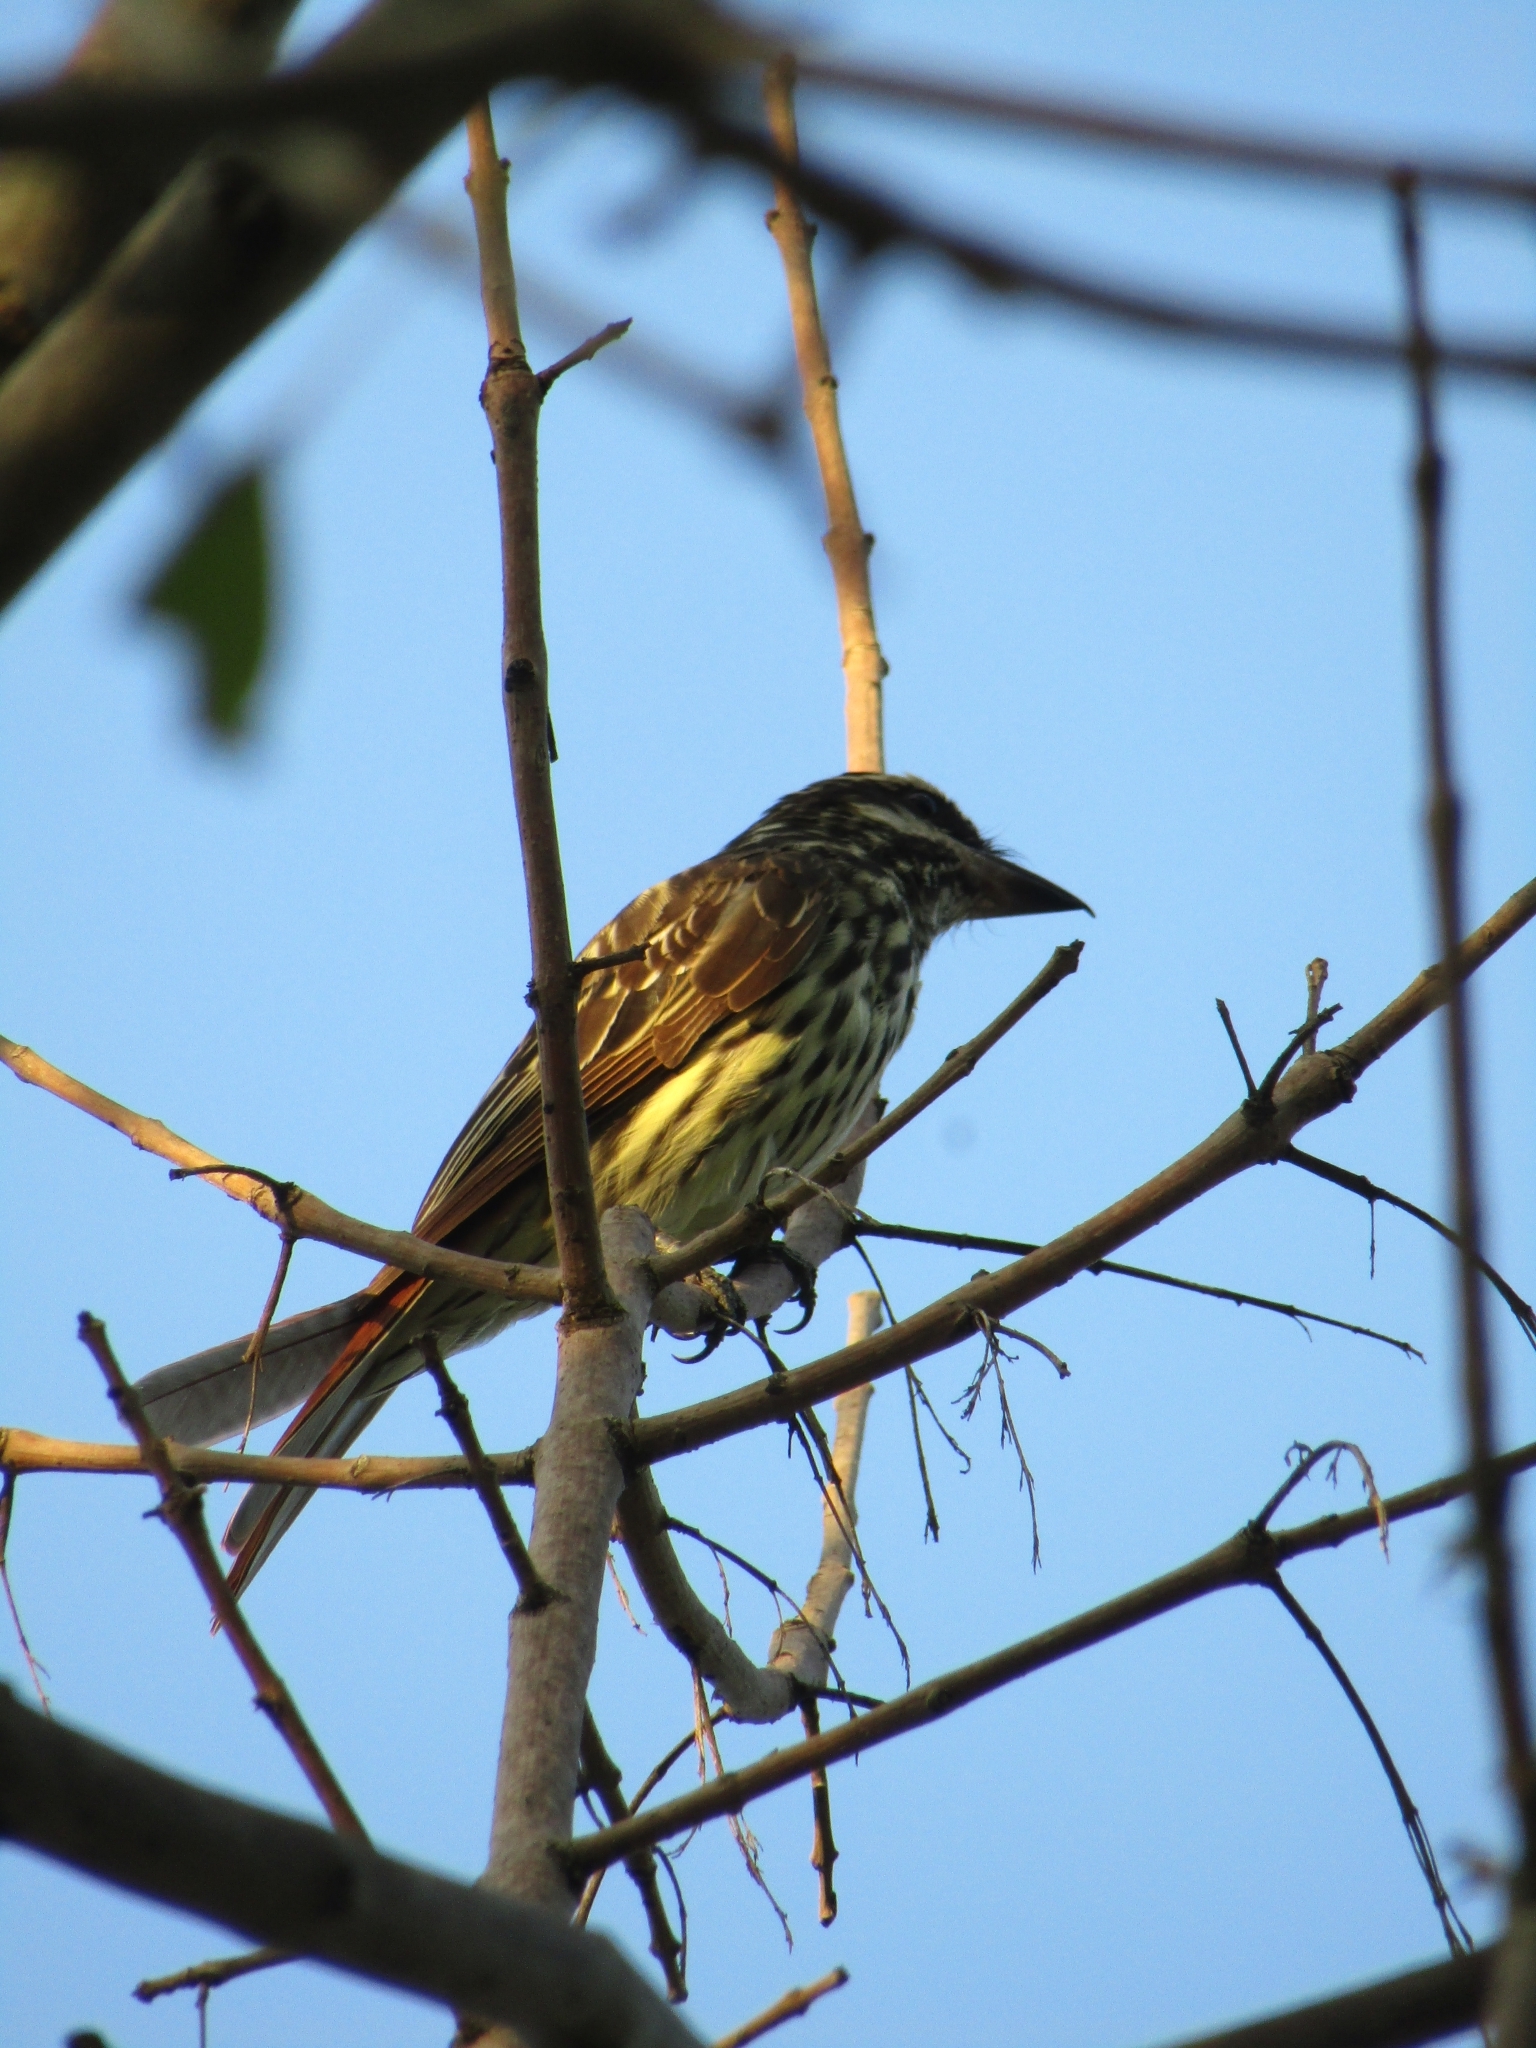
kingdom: Animalia
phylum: Chordata
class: Aves
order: Passeriformes
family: Tyrannidae
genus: Myiodynastes
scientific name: Myiodynastes maculatus
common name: Streaked flycatcher
